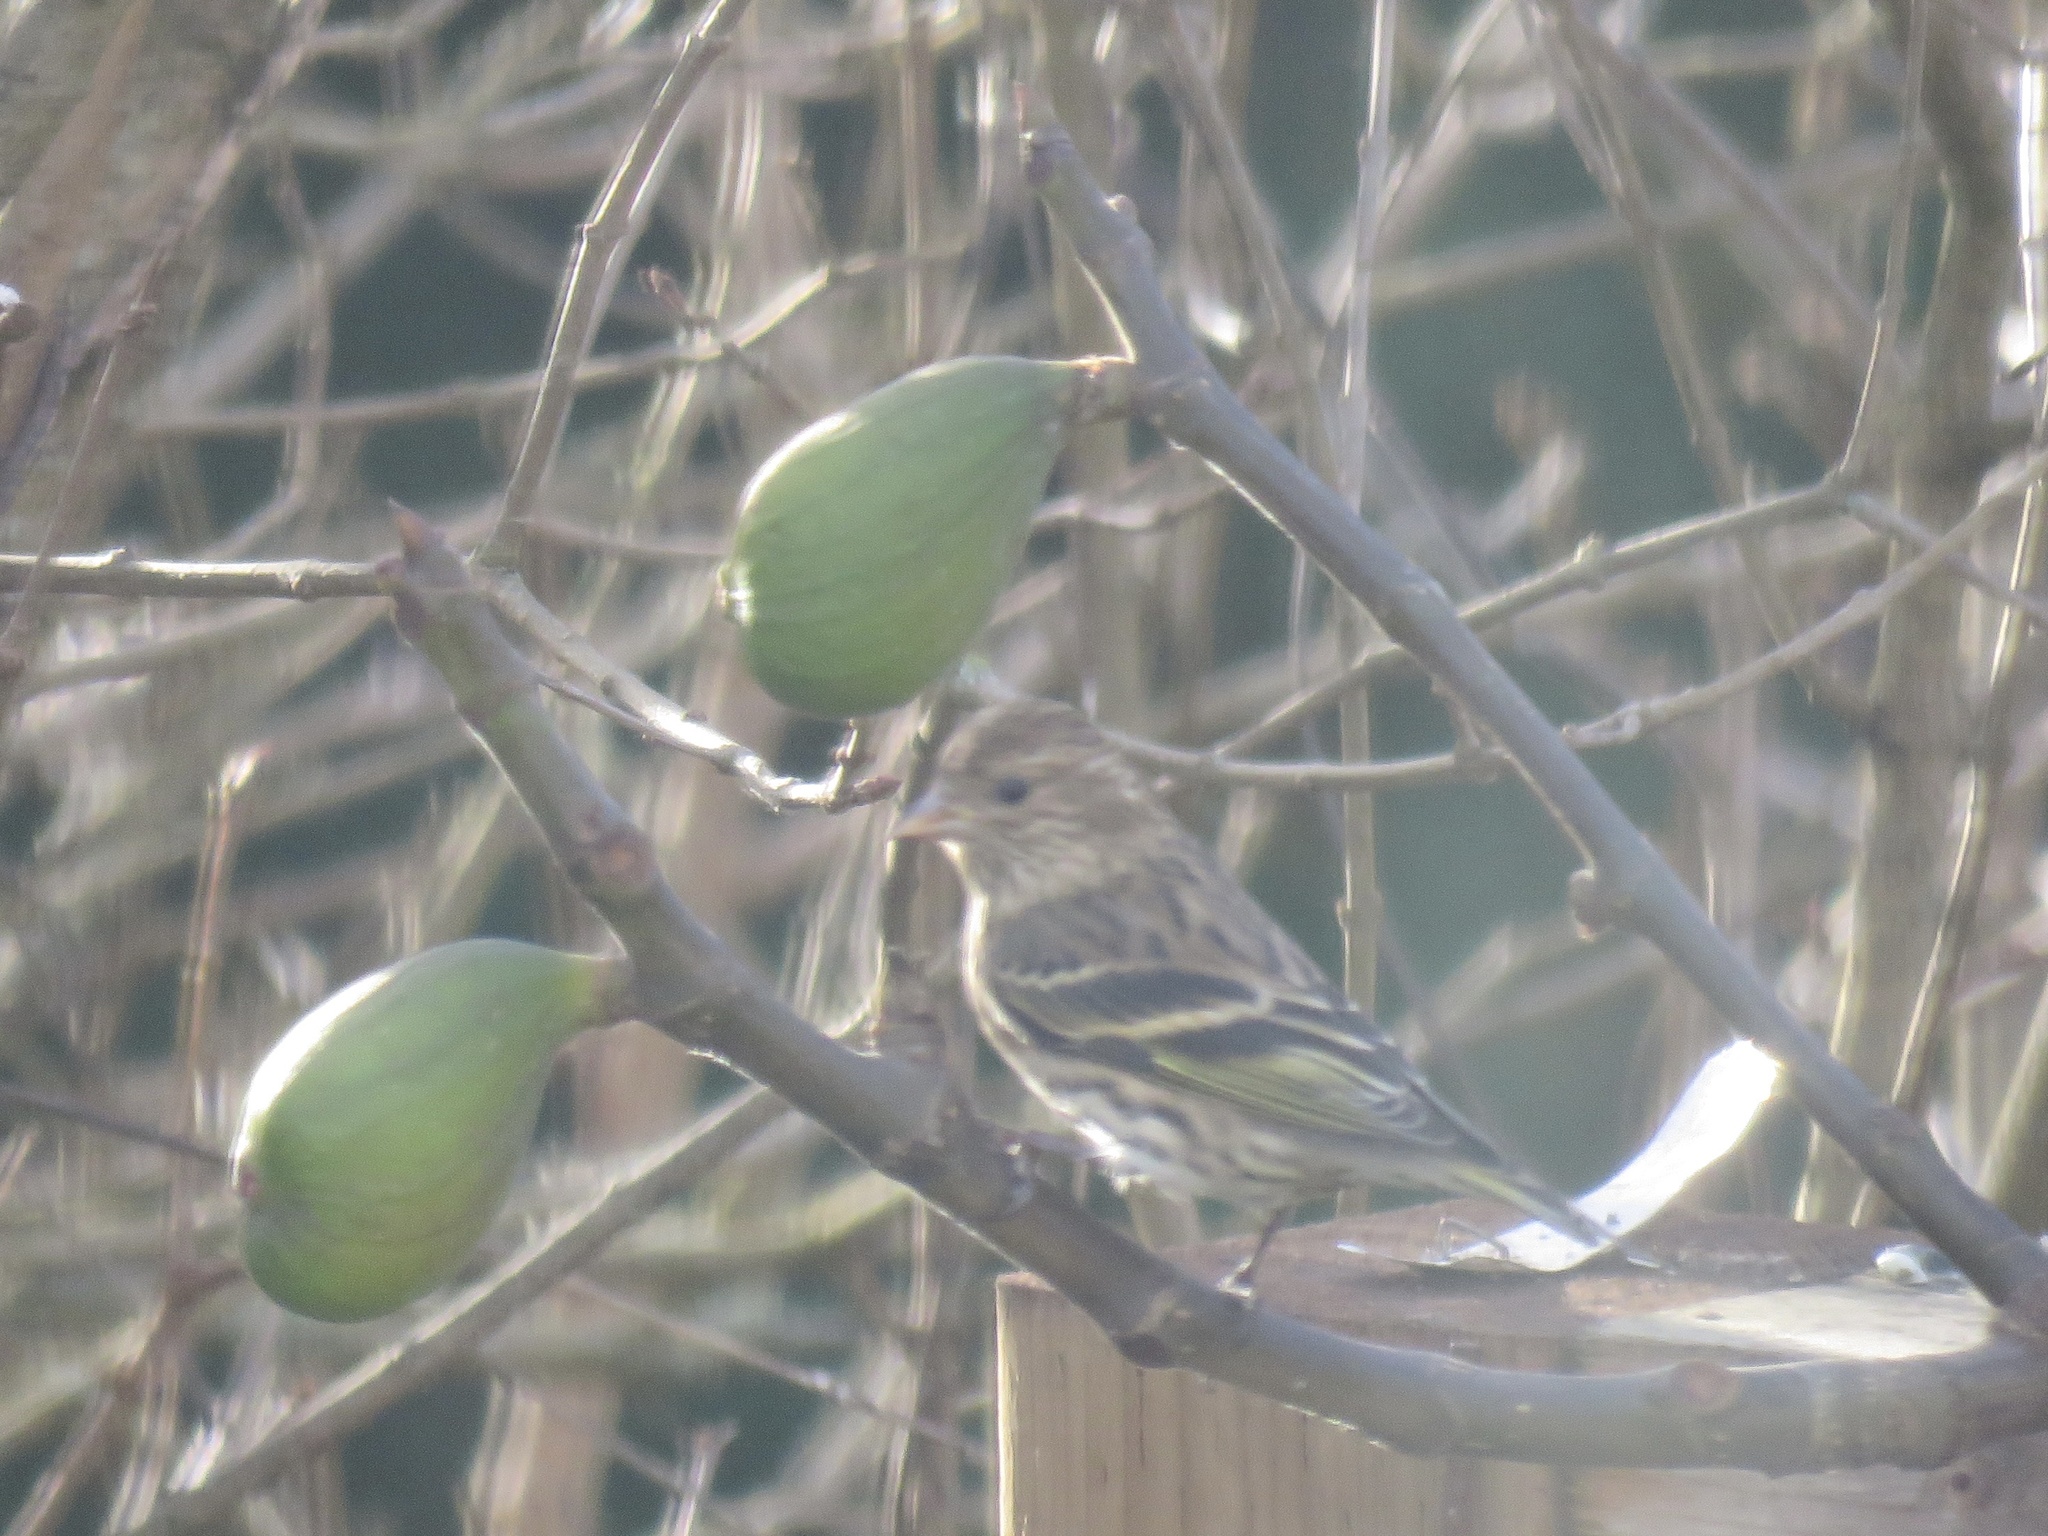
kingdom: Animalia
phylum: Chordata
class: Aves
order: Passeriformes
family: Fringillidae
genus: Spinus
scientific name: Spinus pinus
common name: Pine siskin
